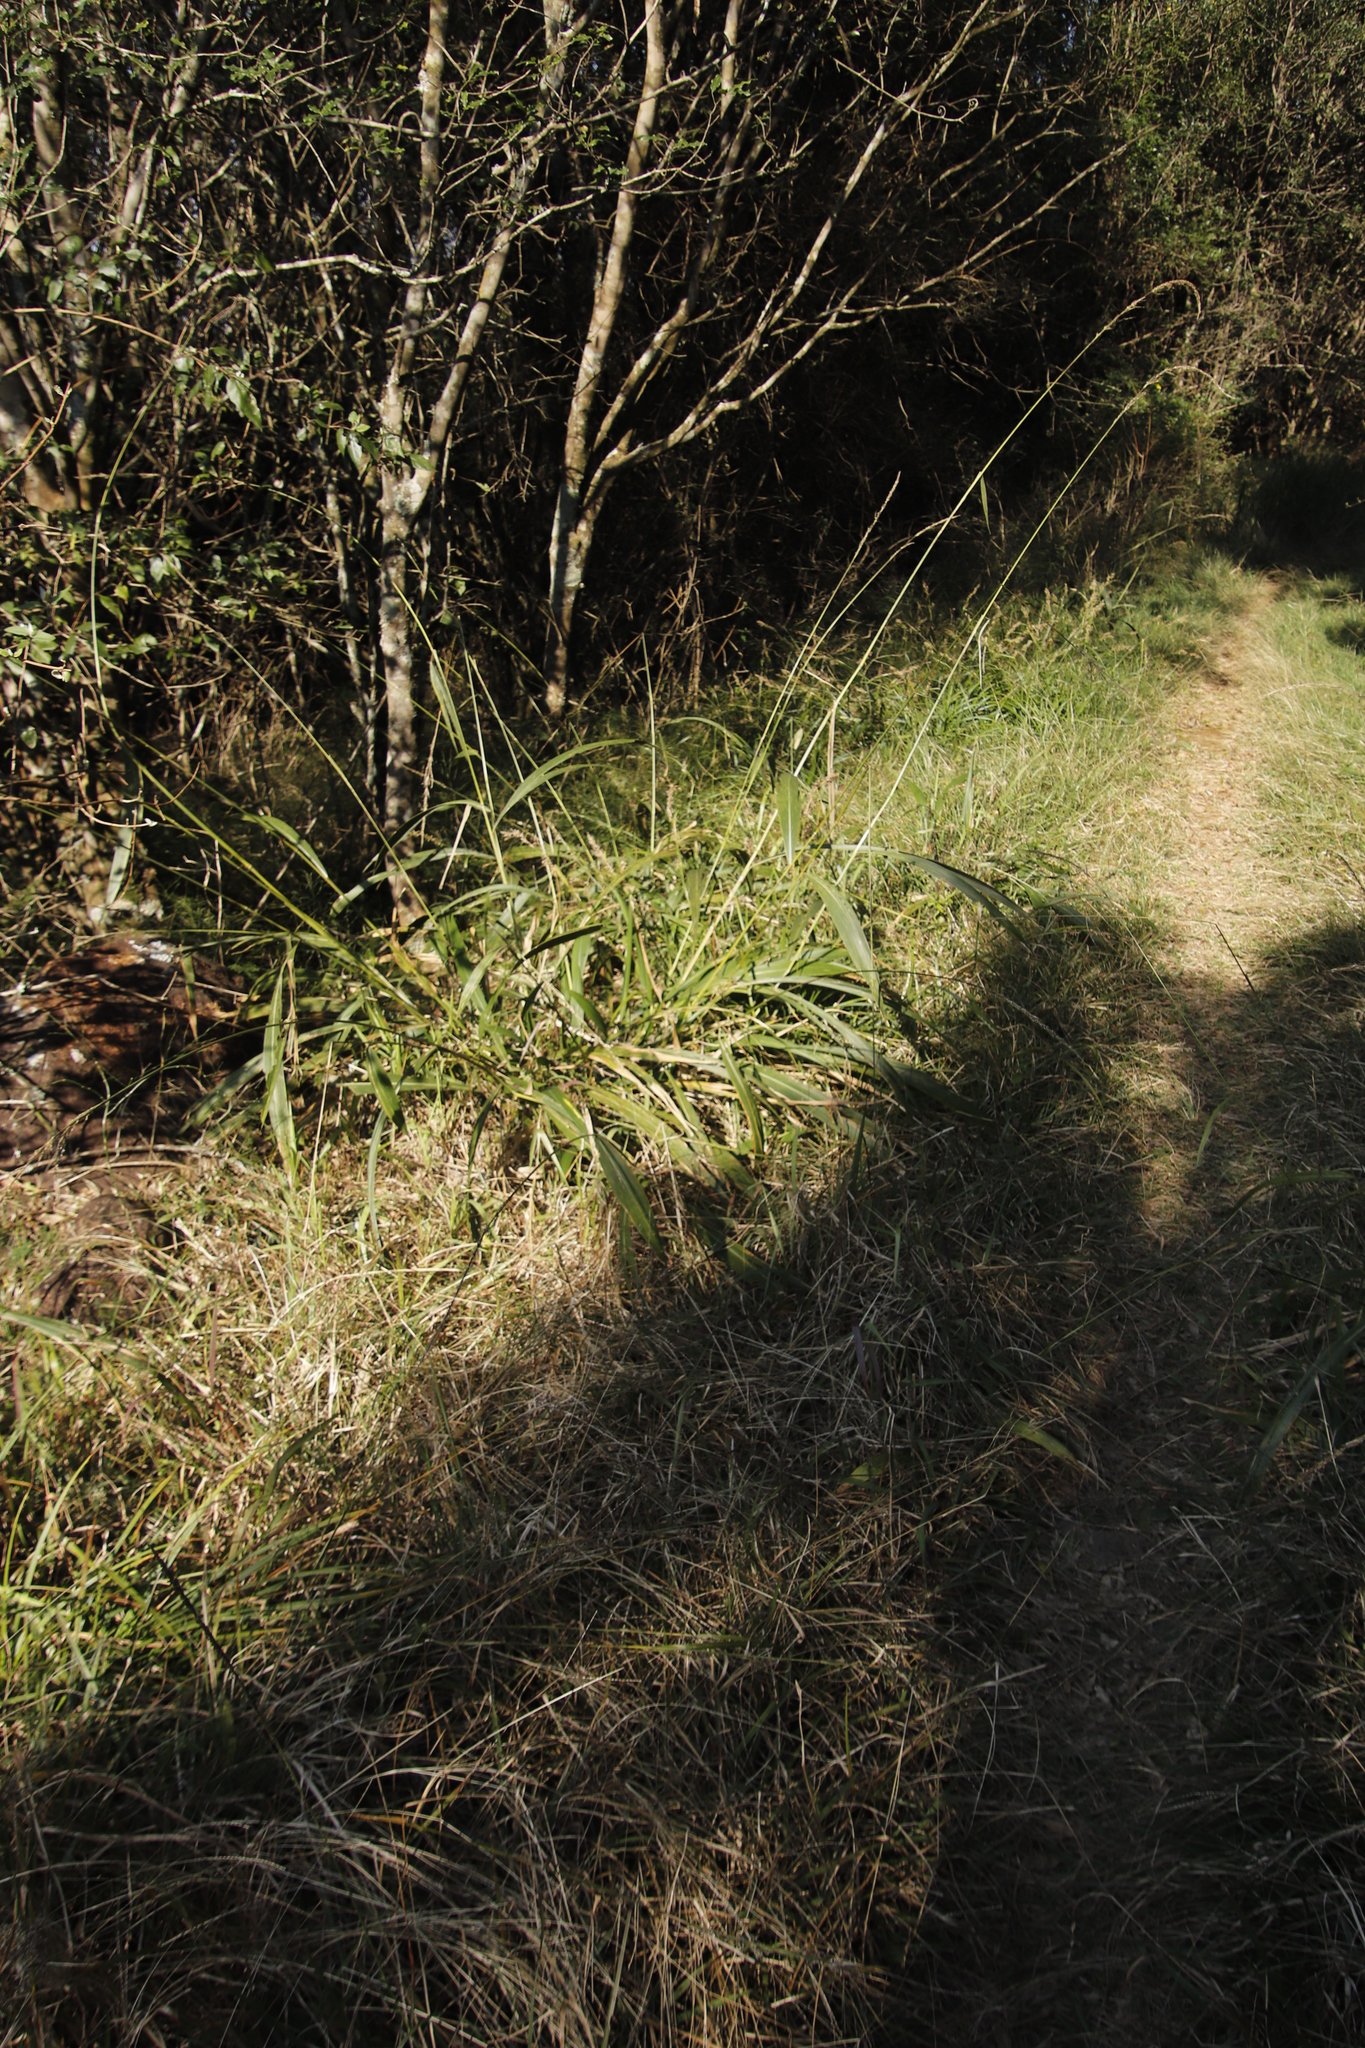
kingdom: Plantae
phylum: Tracheophyta
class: Liliopsida
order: Poales
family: Poaceae
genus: Setaria
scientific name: Setaria megaphylla
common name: Bigleaf bristlegrass
